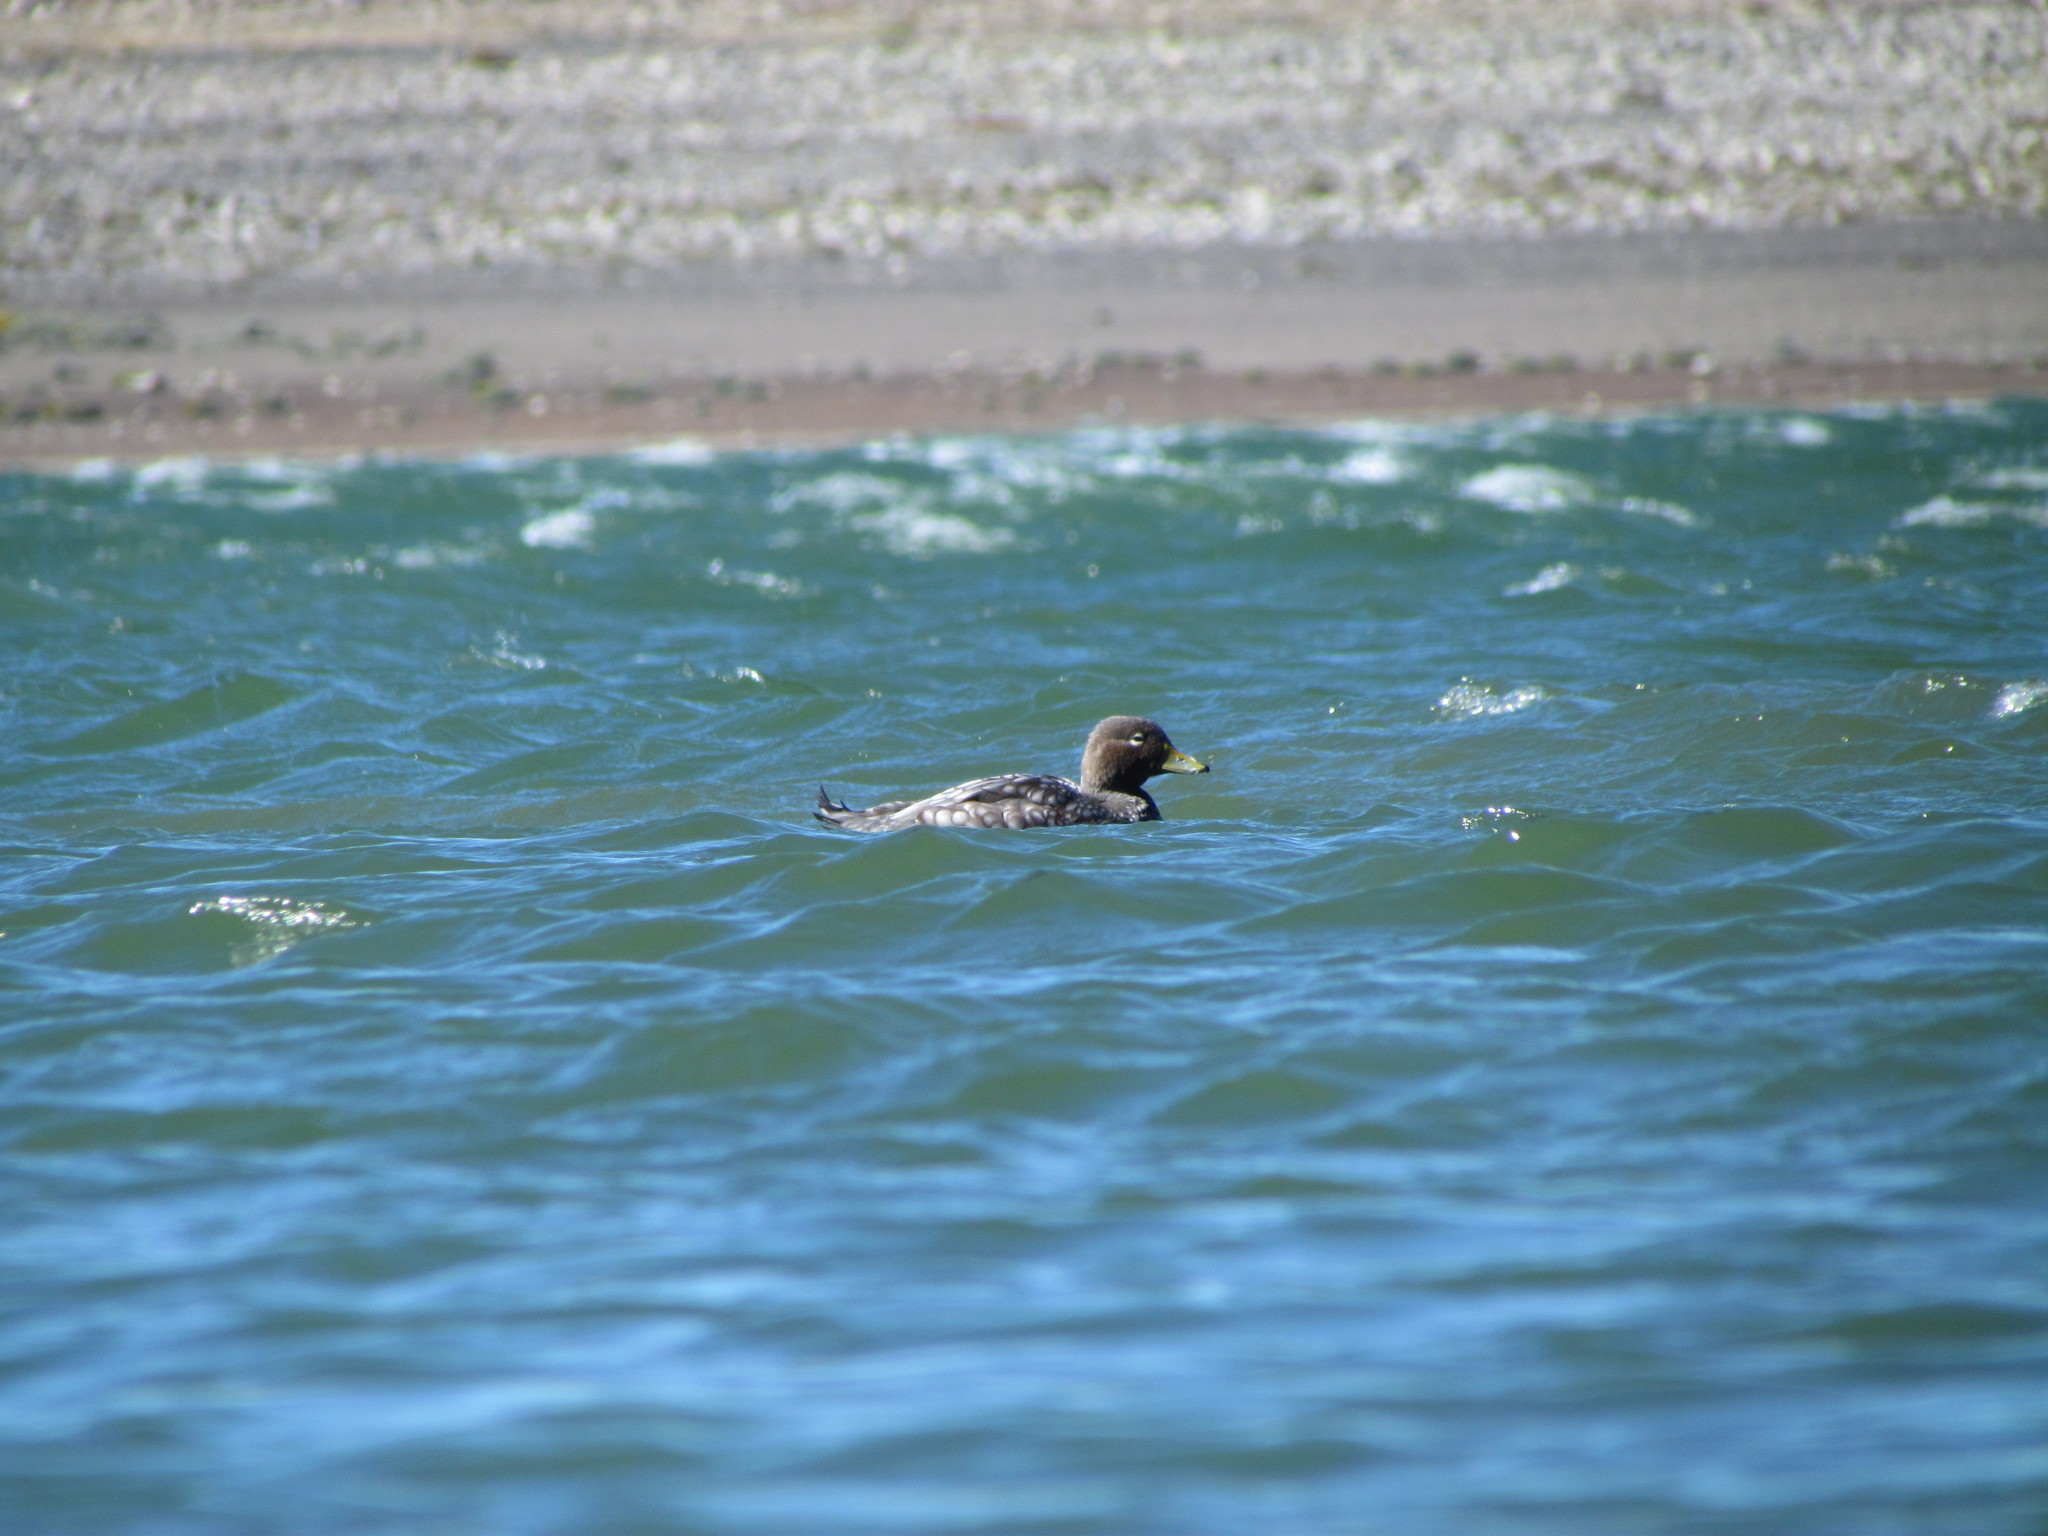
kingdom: Animalia
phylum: Chordata
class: Aves
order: Anseriformes
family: Anatidae
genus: Tachyeres
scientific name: Tachyeres patachonicus
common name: Flying steamer duck
